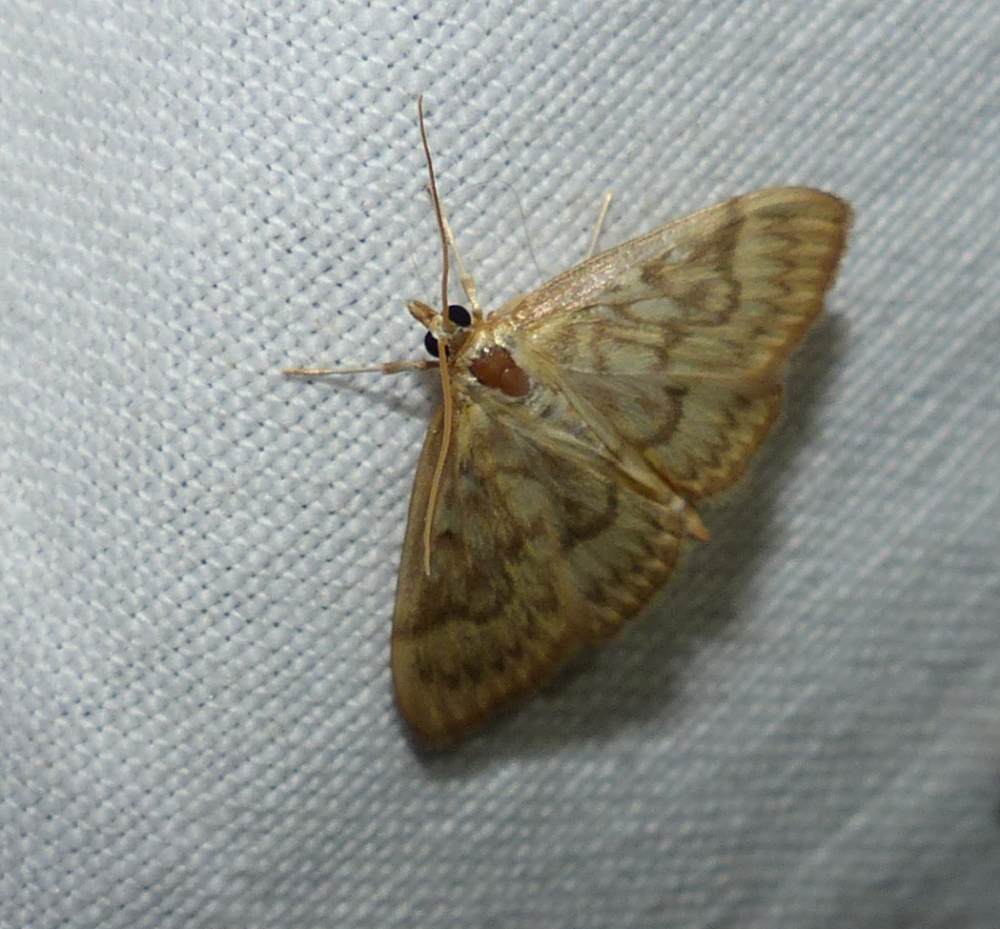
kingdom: Animalia
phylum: Arthropoda
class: Insecta
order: Lepidoptera
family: Crambidae
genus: Crocidophora
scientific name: Crocidophora serratissimalis
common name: Saw-toothed crocidophora moth
